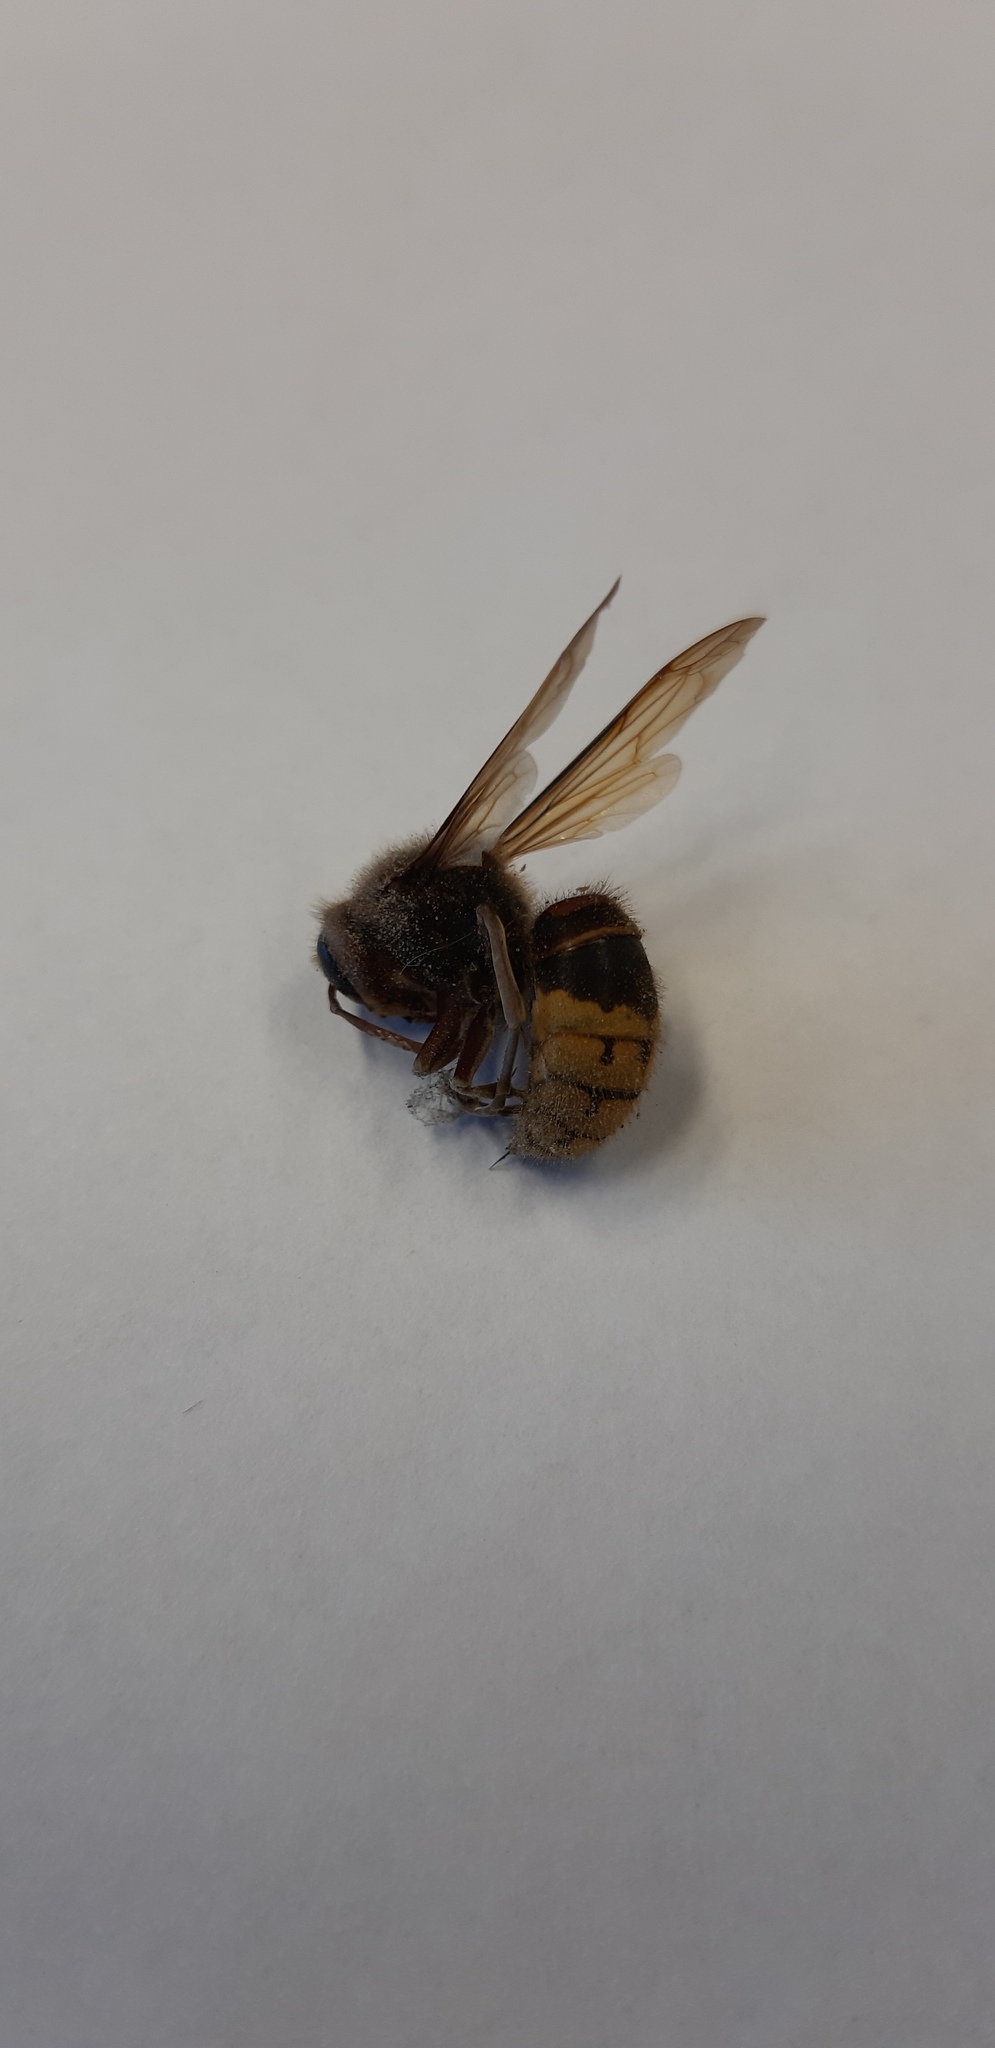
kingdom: Animalia
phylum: Arthropoda
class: Insecta
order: Hymenoptera
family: Vespidae
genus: Vespa
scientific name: Vespa crabro
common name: Hornet
